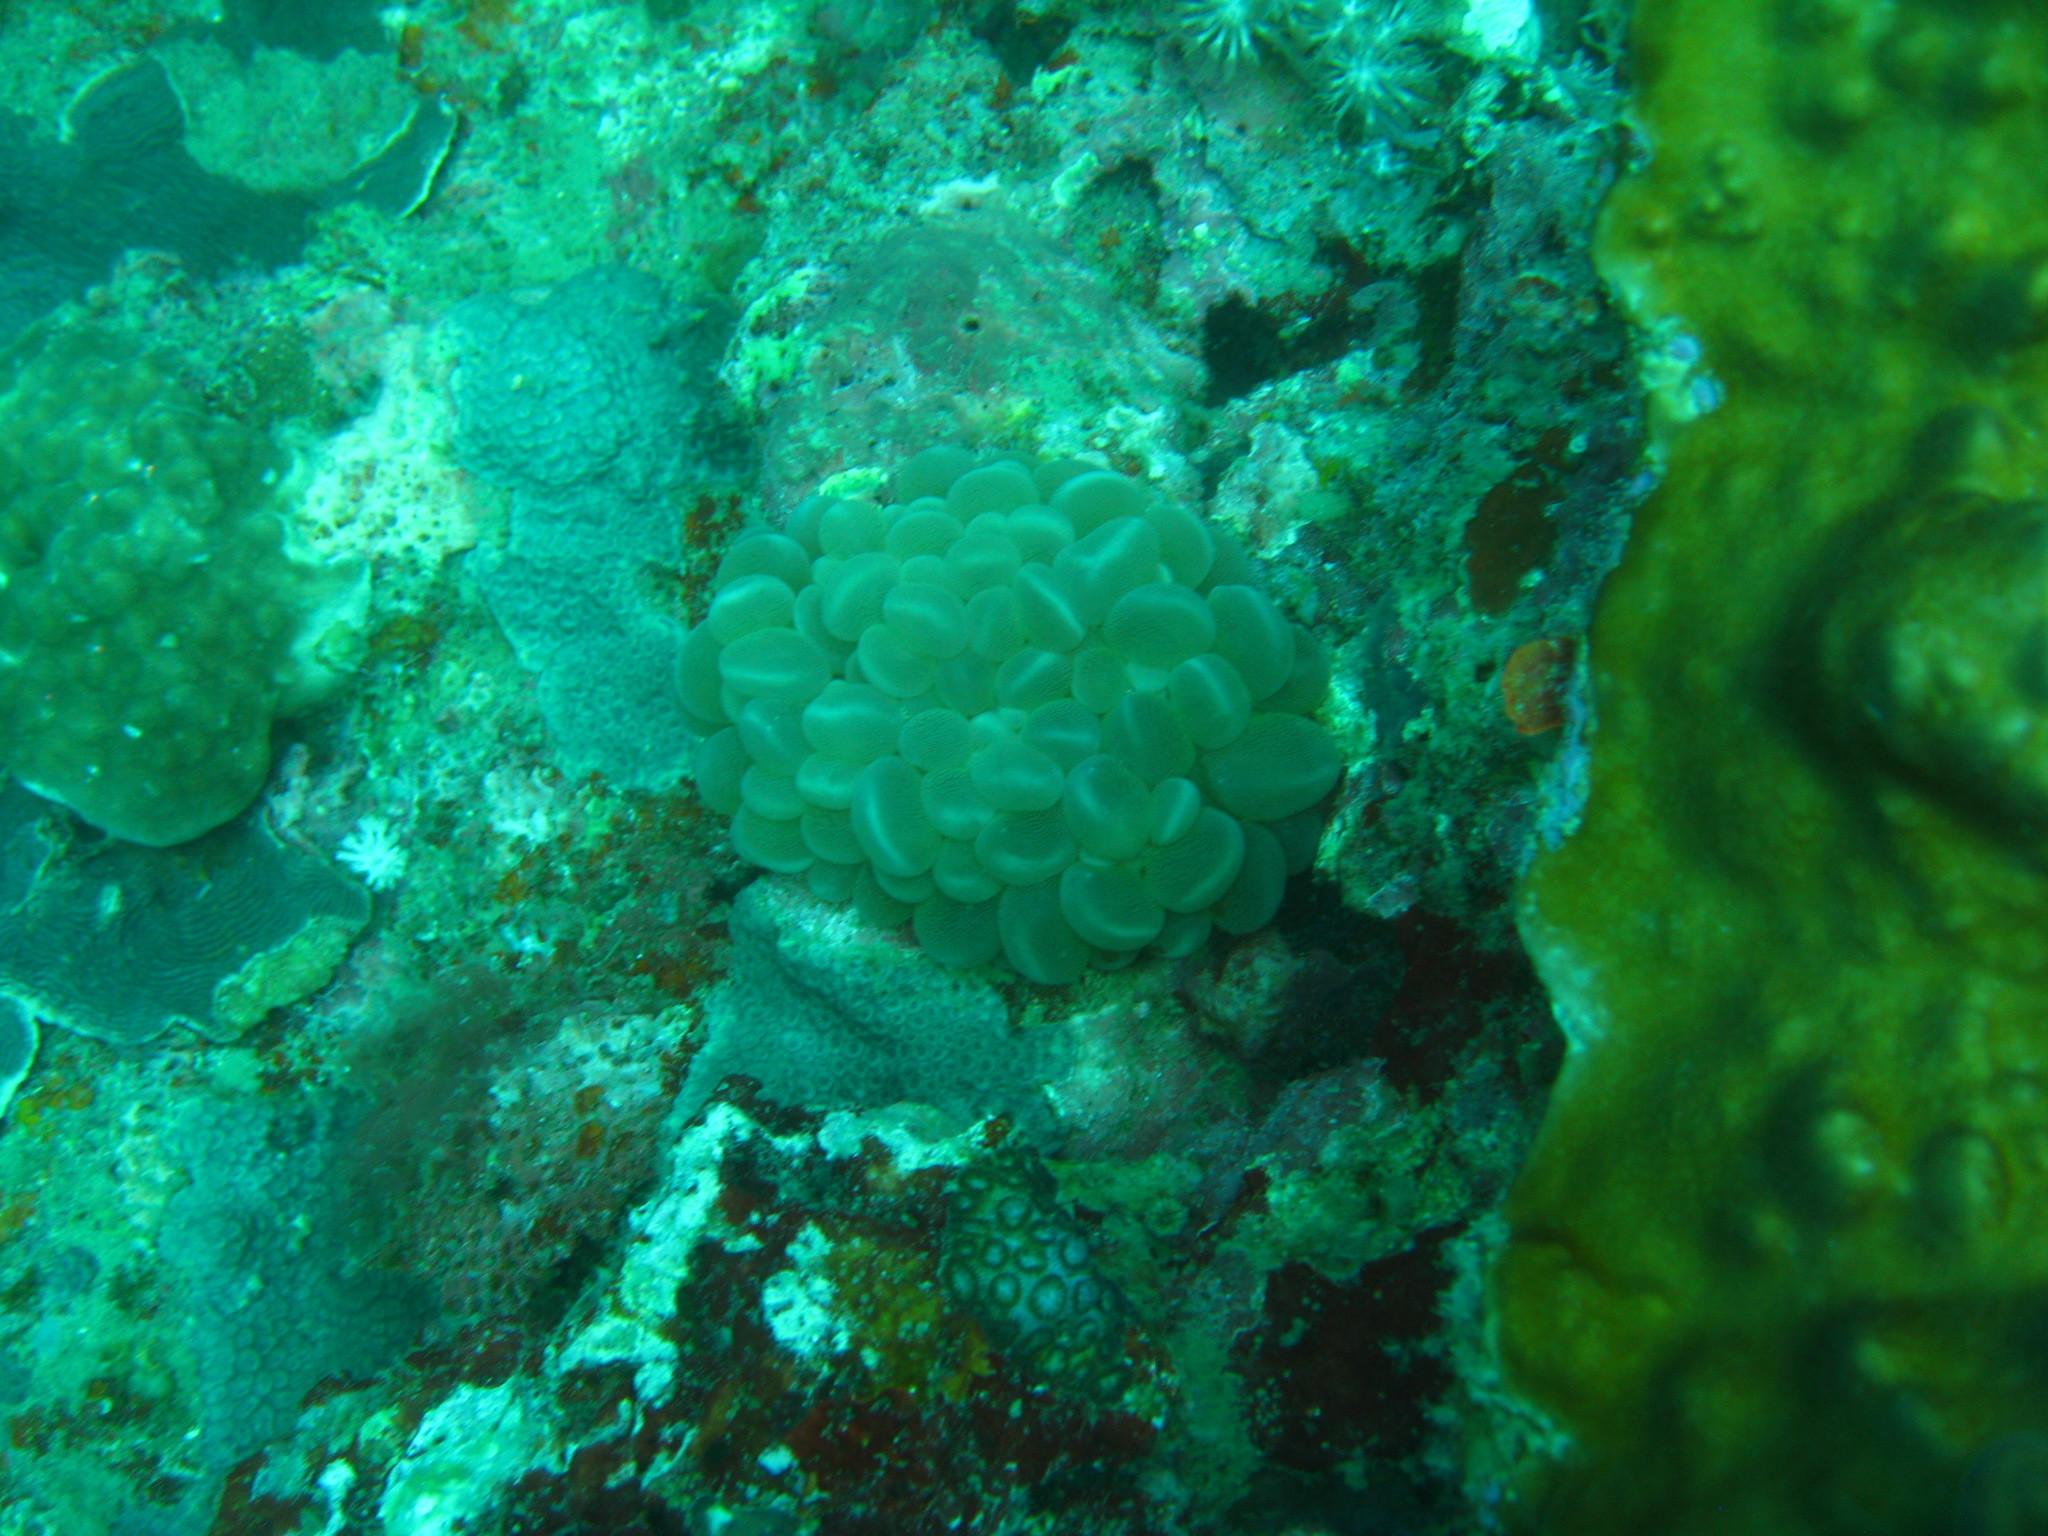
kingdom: Animalia
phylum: Cnidaria
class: Anthozoa
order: Scleractinia
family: Plerogyridae
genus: Plerogyra
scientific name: Plerogyra sinuosa
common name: Bubble coral
